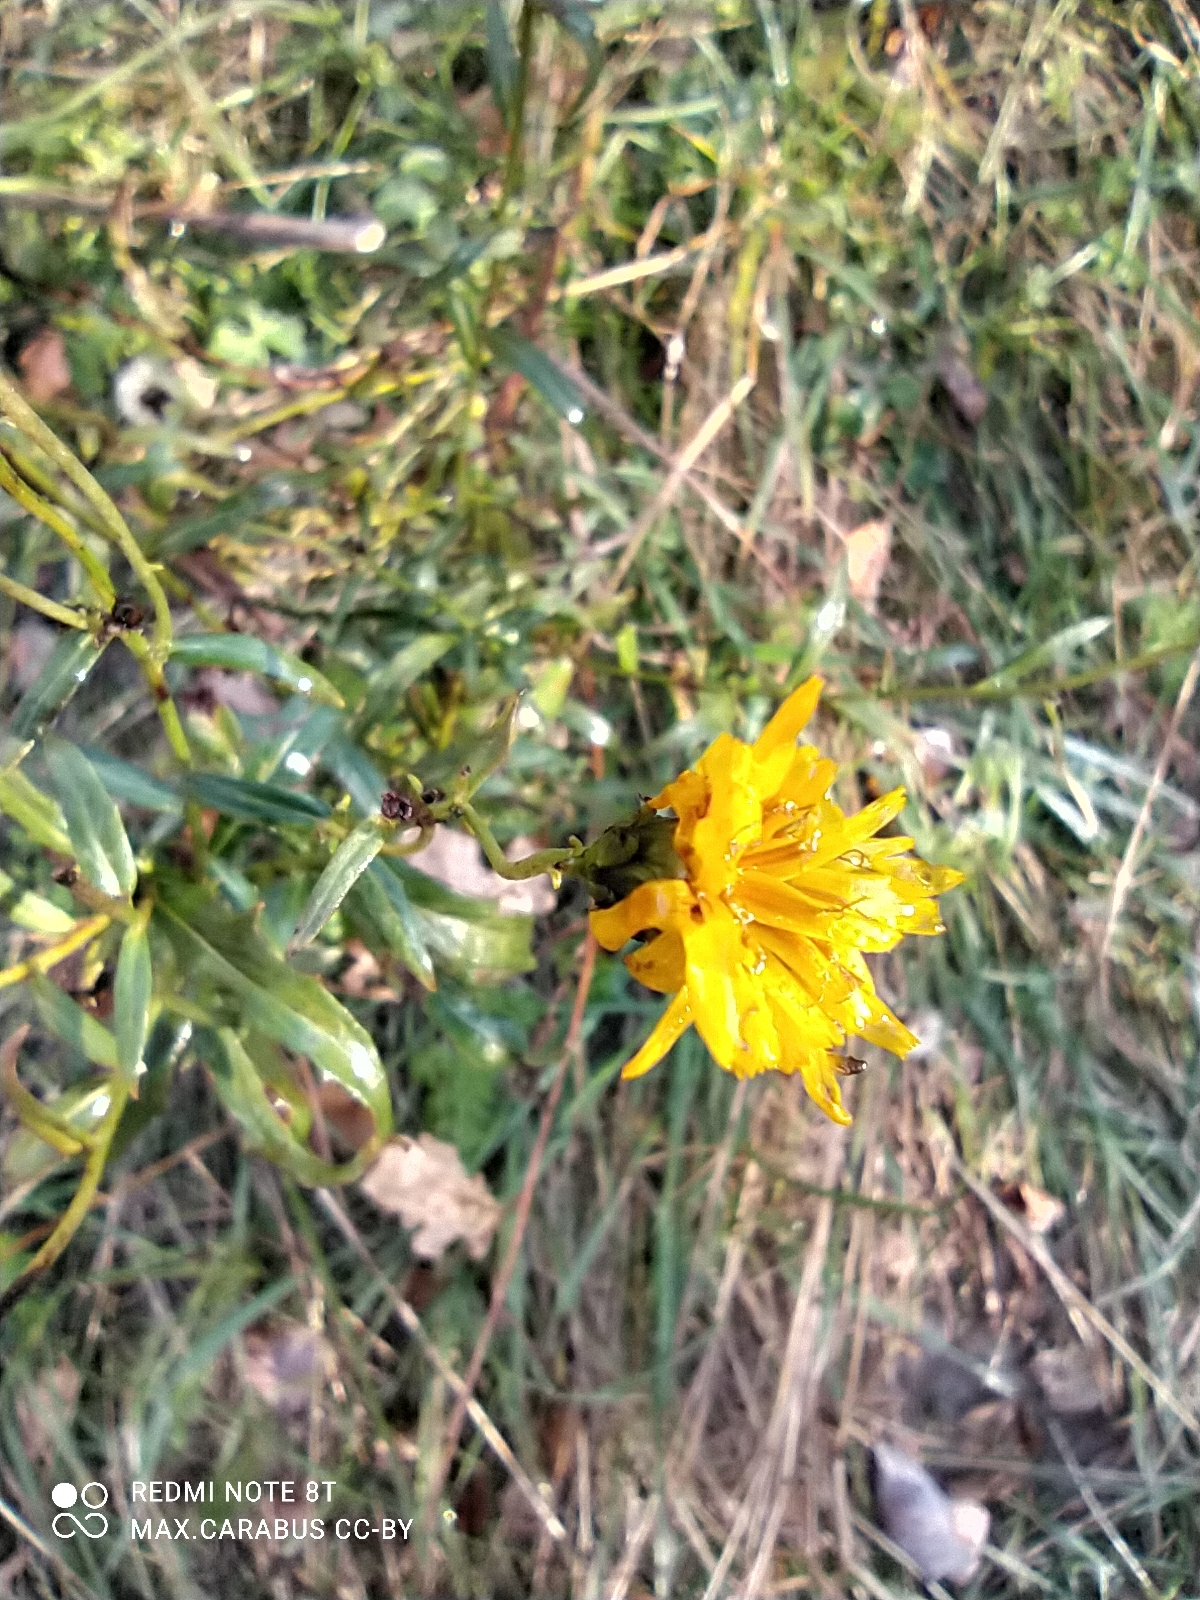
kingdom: Plantae
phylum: Tracheophyta
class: Magnoliopsida
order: Asterales
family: Asteraceae
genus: Hieracium
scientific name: Hieracium umbellatum
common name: Northern hawkweed
